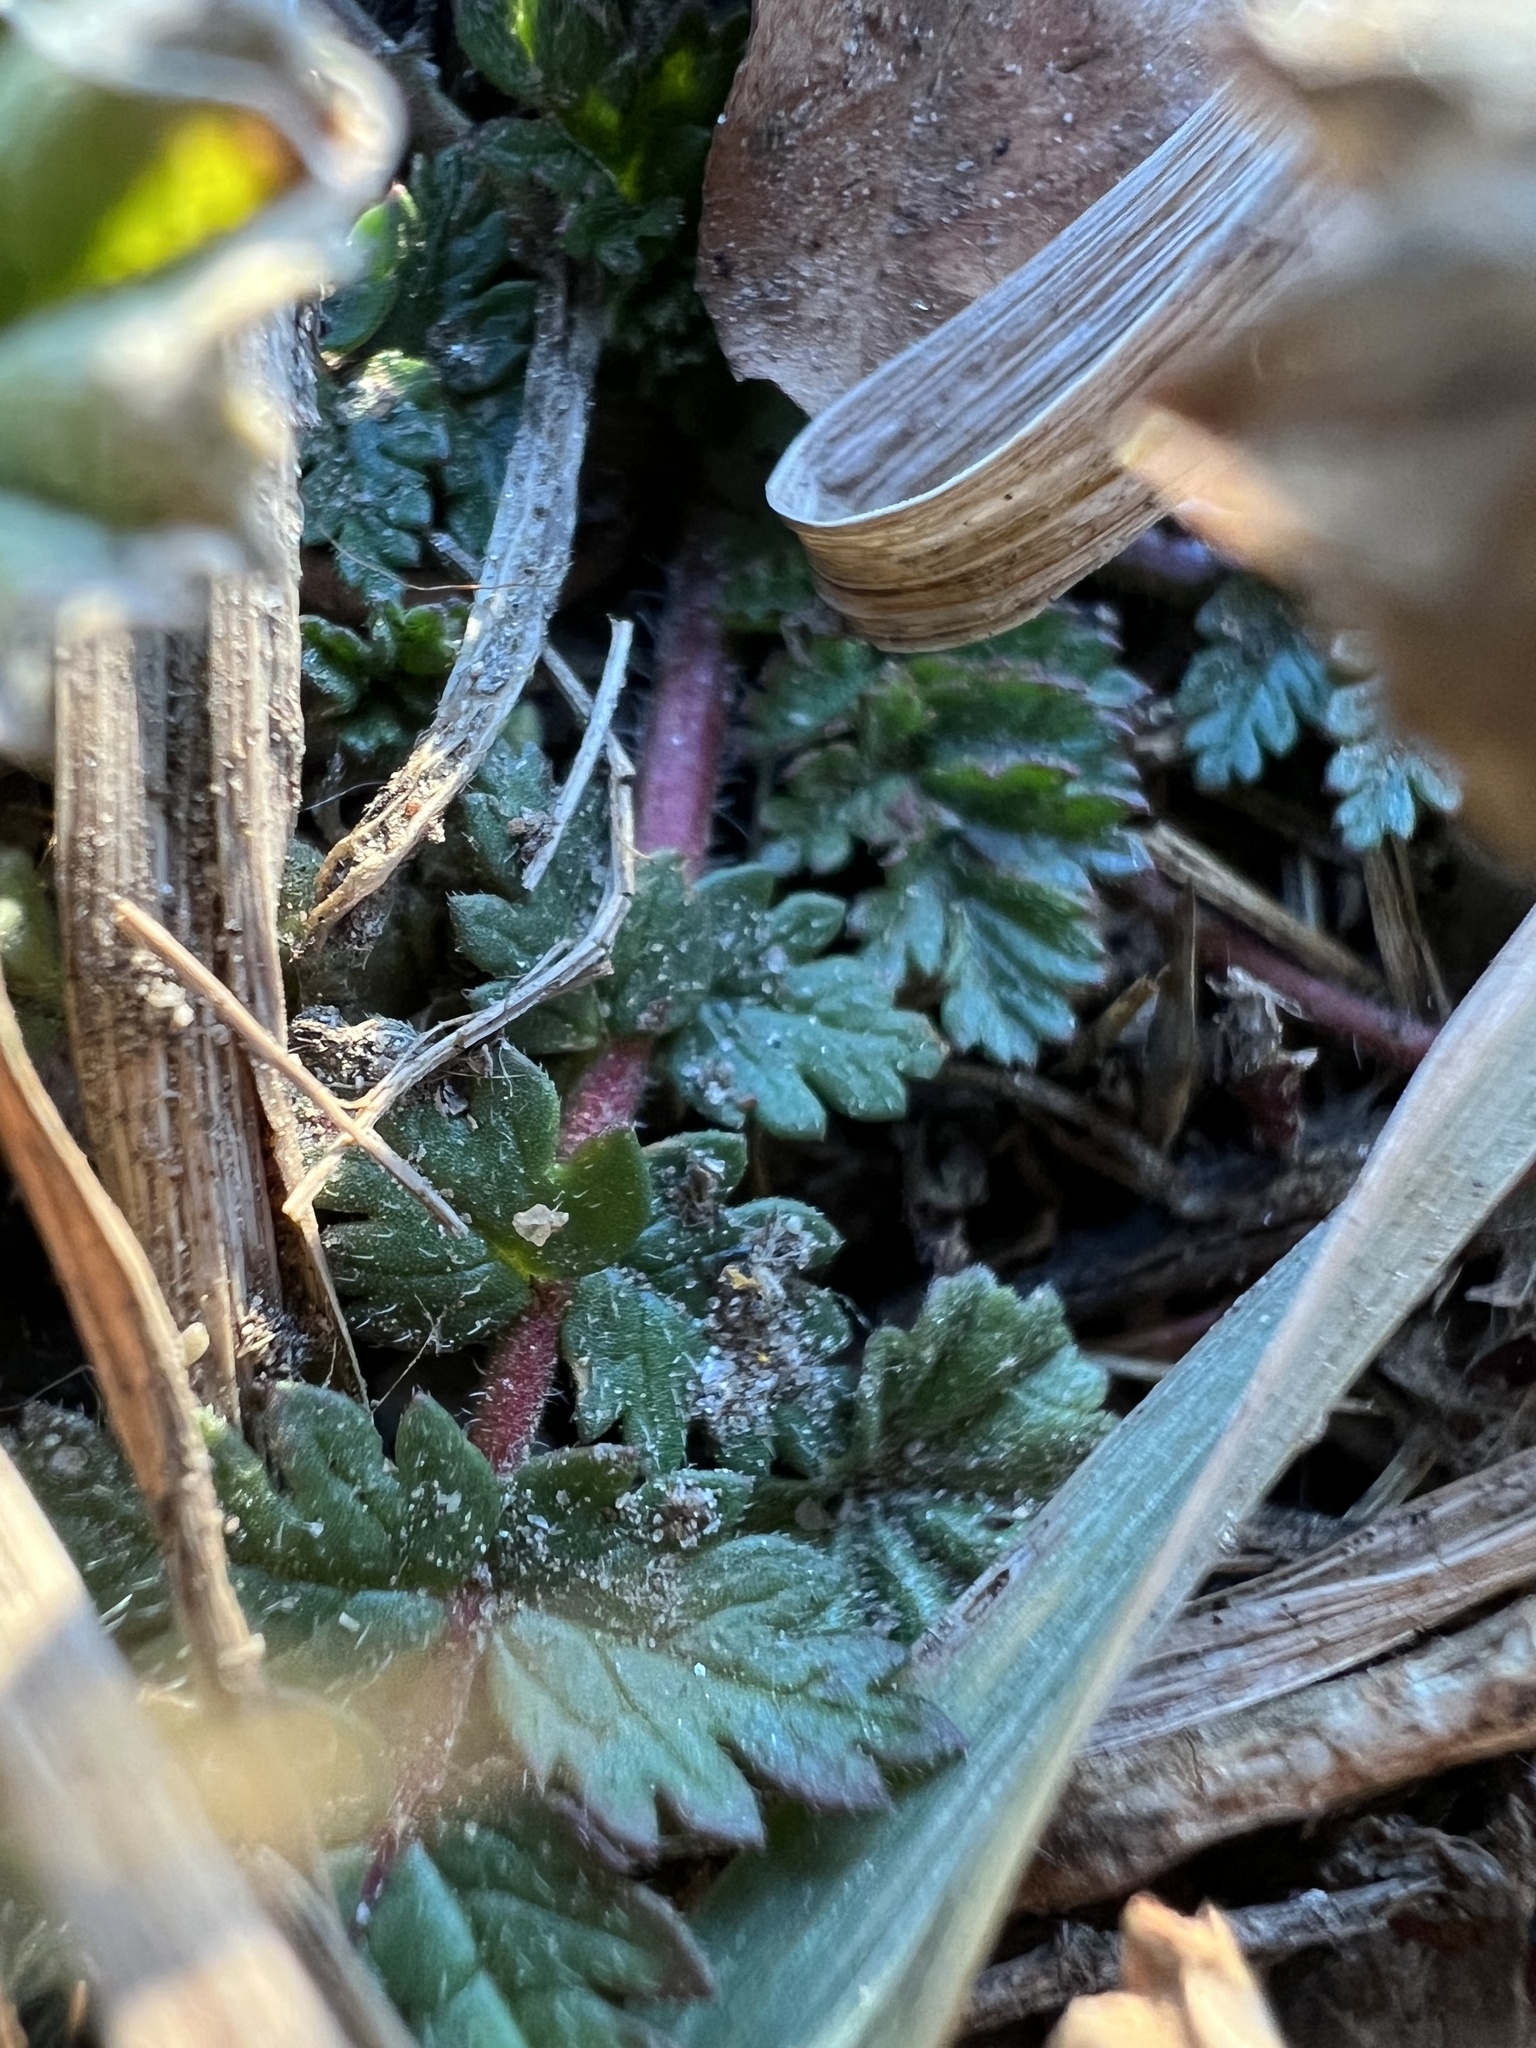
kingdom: Plantae
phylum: Tracheophyta
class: Magnoliopsida
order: Geraniales
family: Geraniaceae
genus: Erodium
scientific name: Erodium cicutarium
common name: Common stork's-bill
